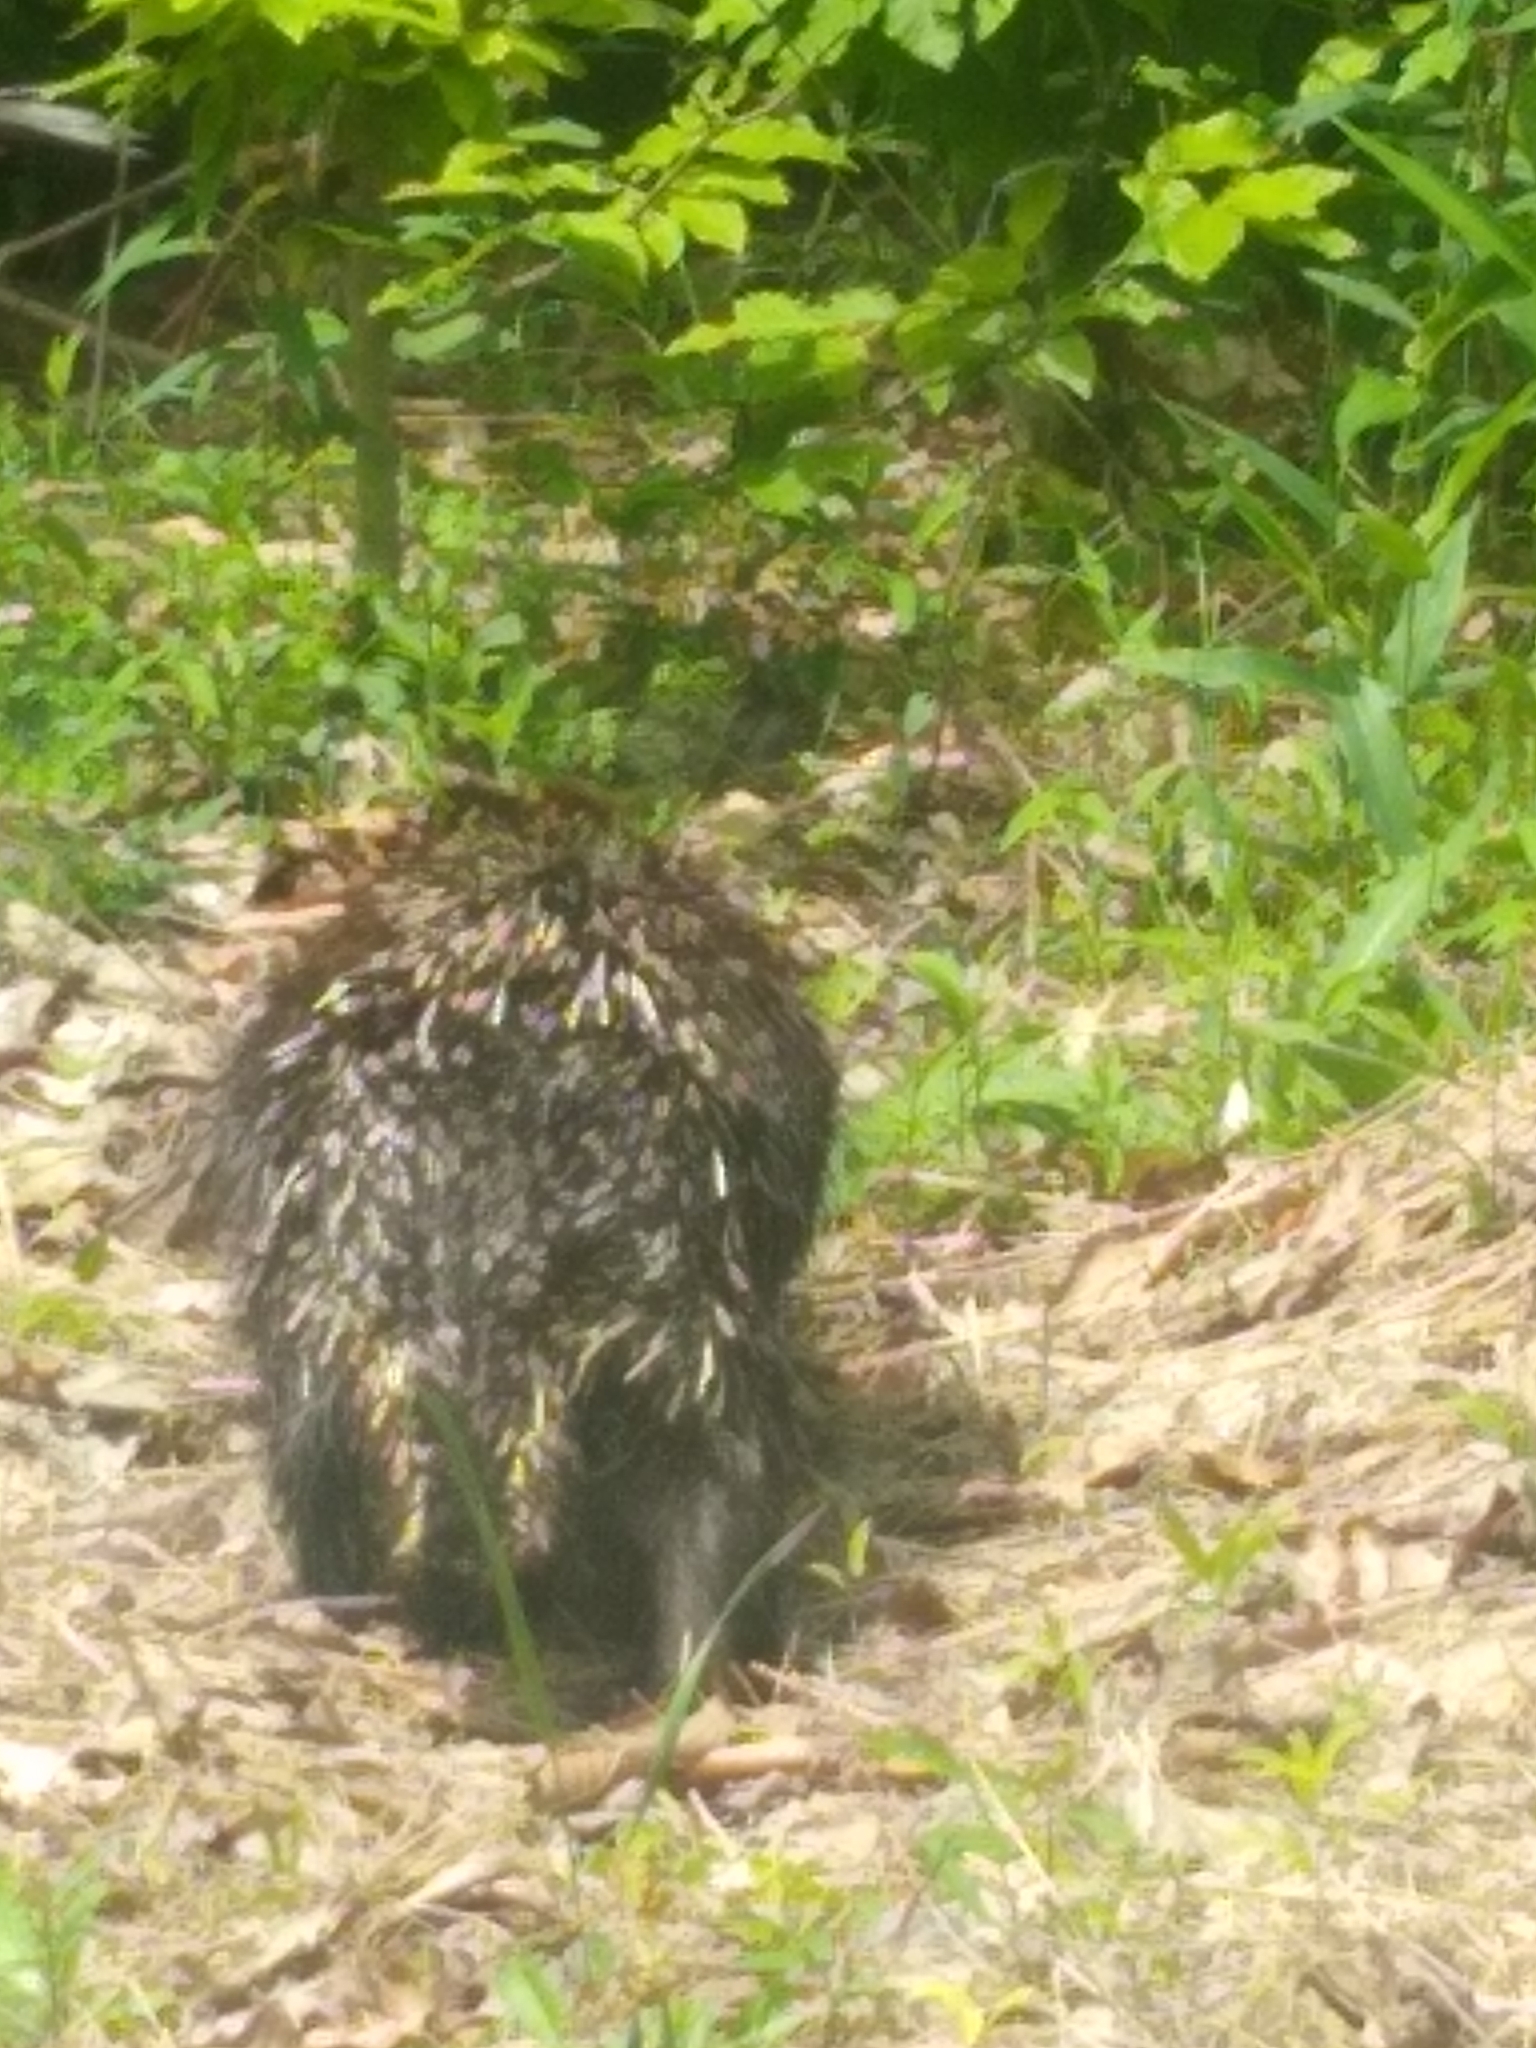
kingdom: Animalia
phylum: Chordata
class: Mammalia
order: Rodentia
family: Erethizontidae
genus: Erethizon
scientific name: Erethizon dorsatus
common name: North american porcupine
